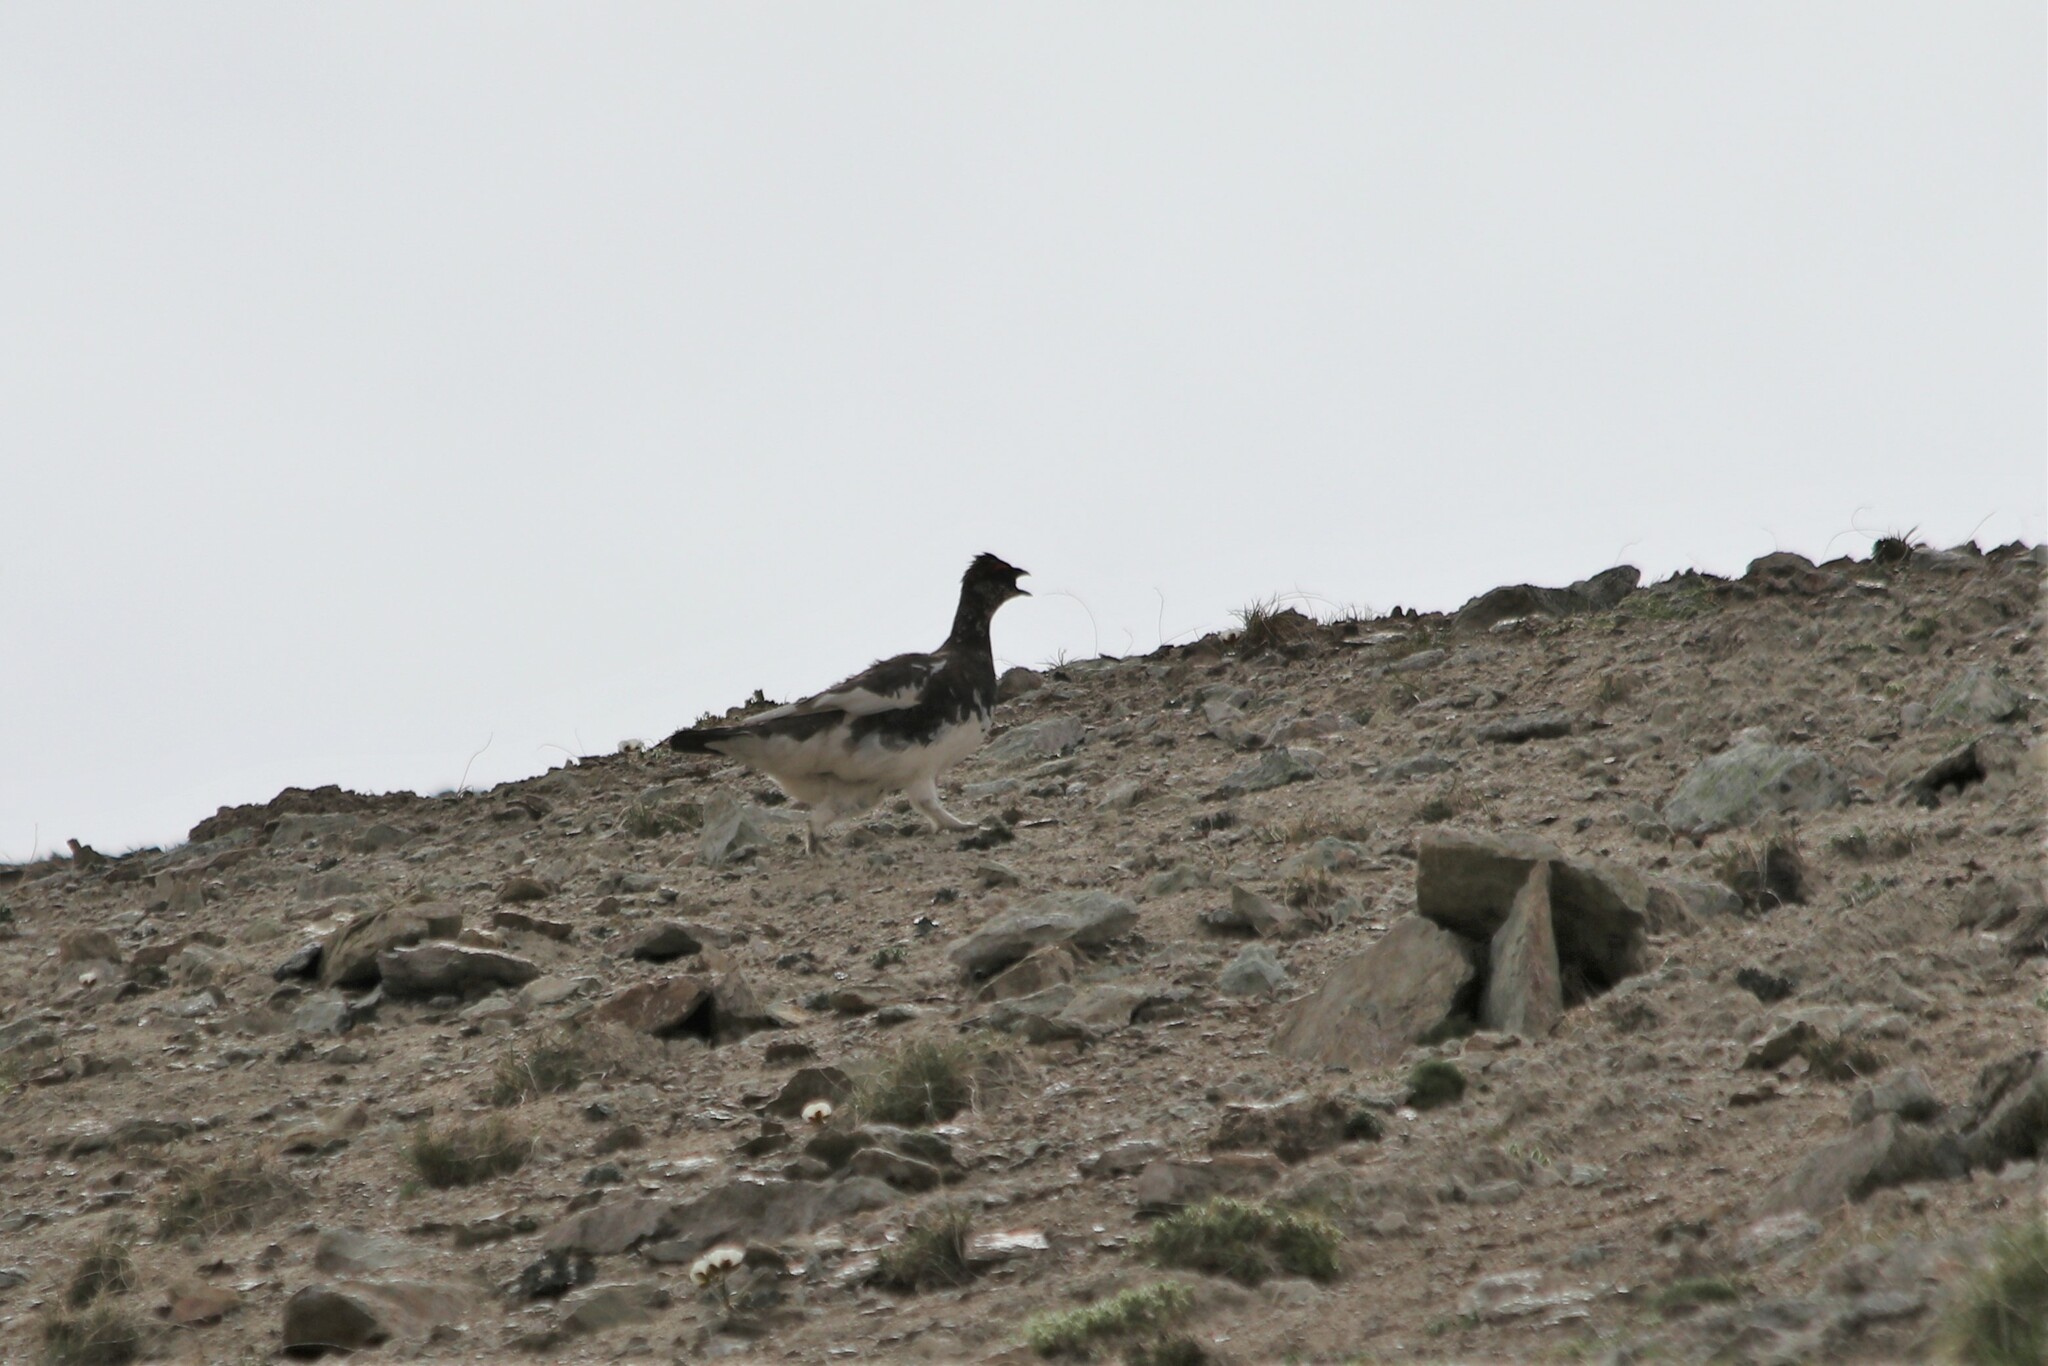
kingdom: Animalia
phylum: Chordata
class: Aves
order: Galliformes
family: Phasianidae
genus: Lagopus
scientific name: Lagopus muta
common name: Rock ptarmigan
